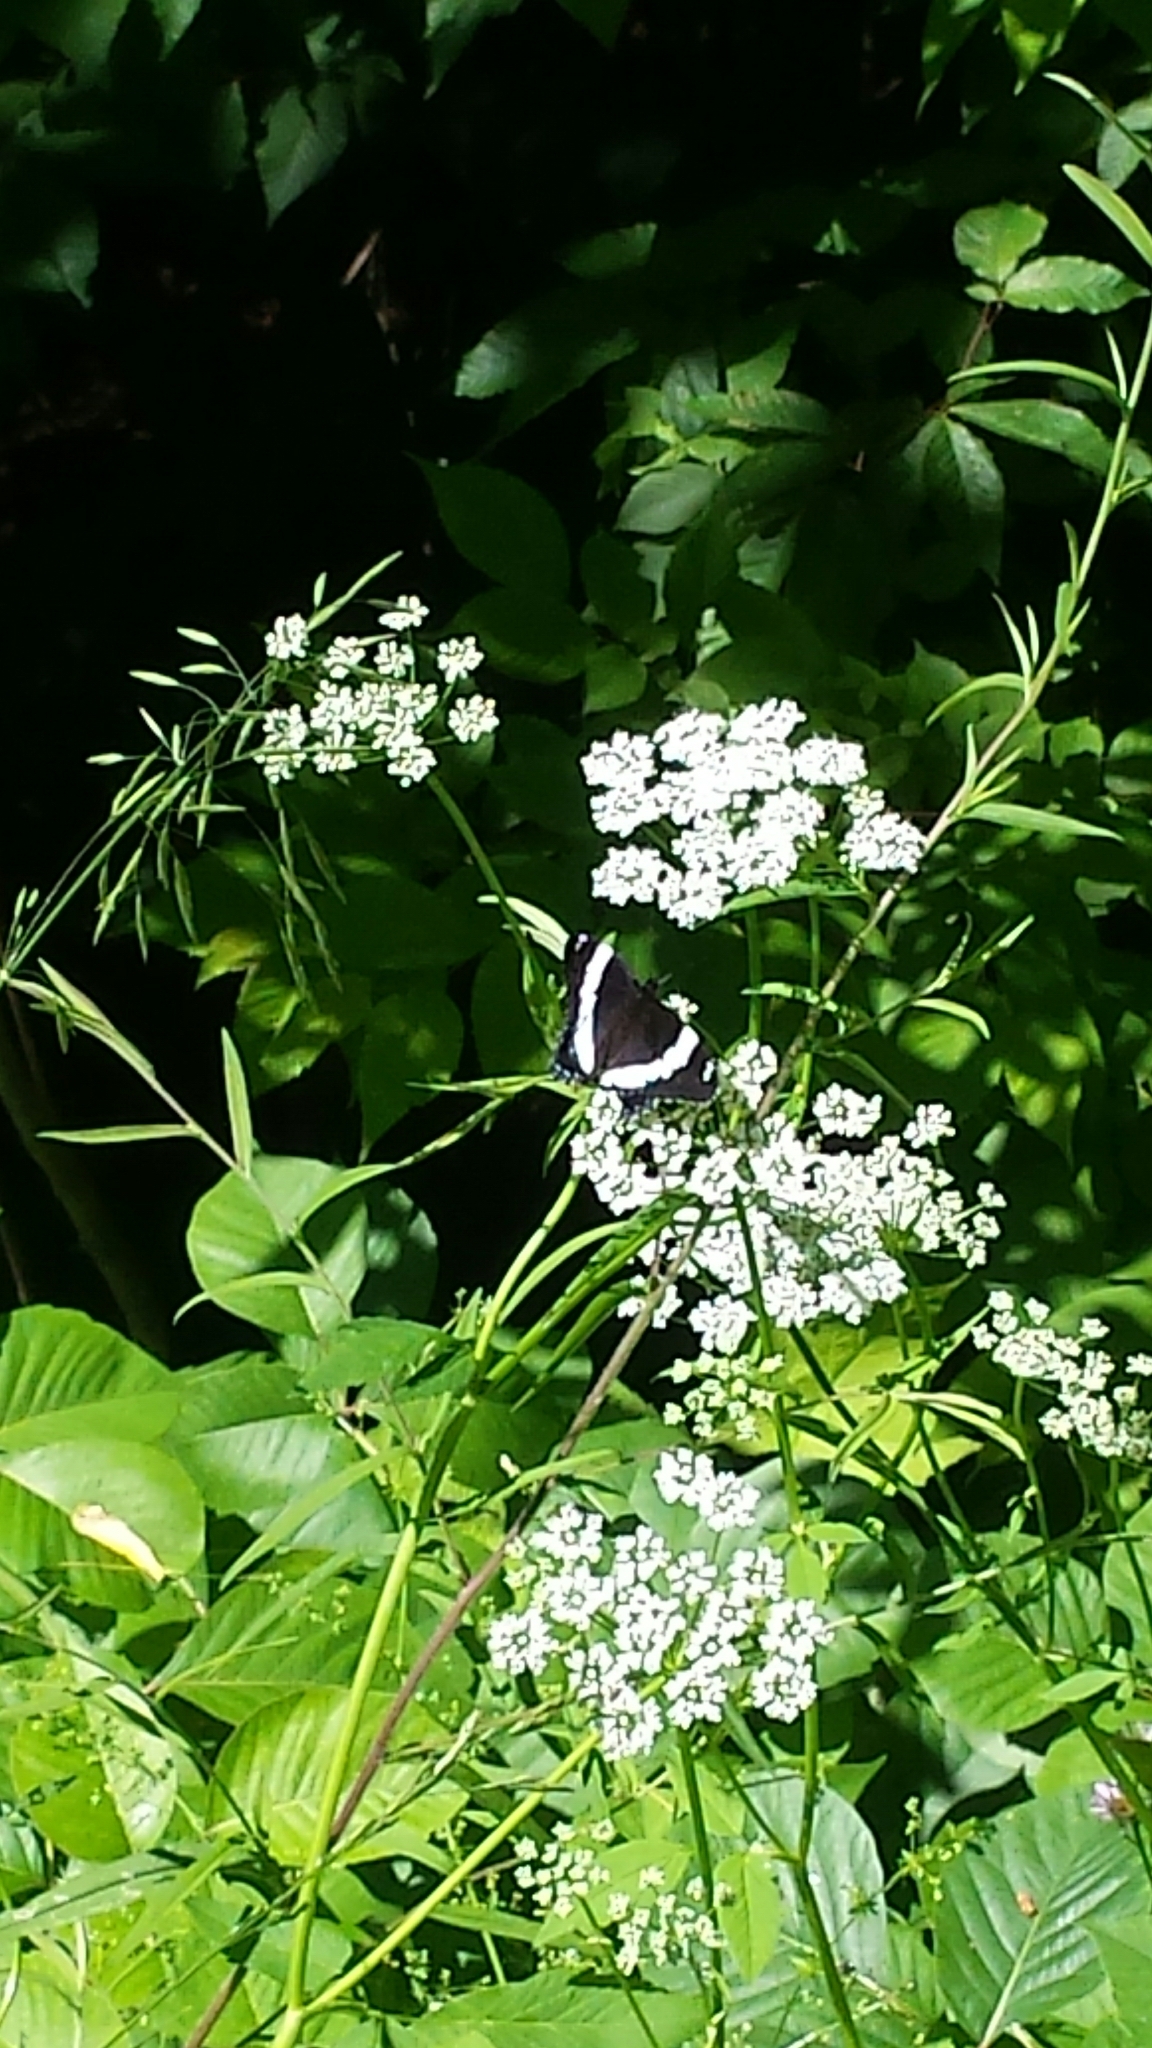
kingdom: Animalia
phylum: Arthropoda
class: Insecta
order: Lepidoptera
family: Nymphalidae
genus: Limenitis
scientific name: Limenitis arthemis
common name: Red-spotted admiral
